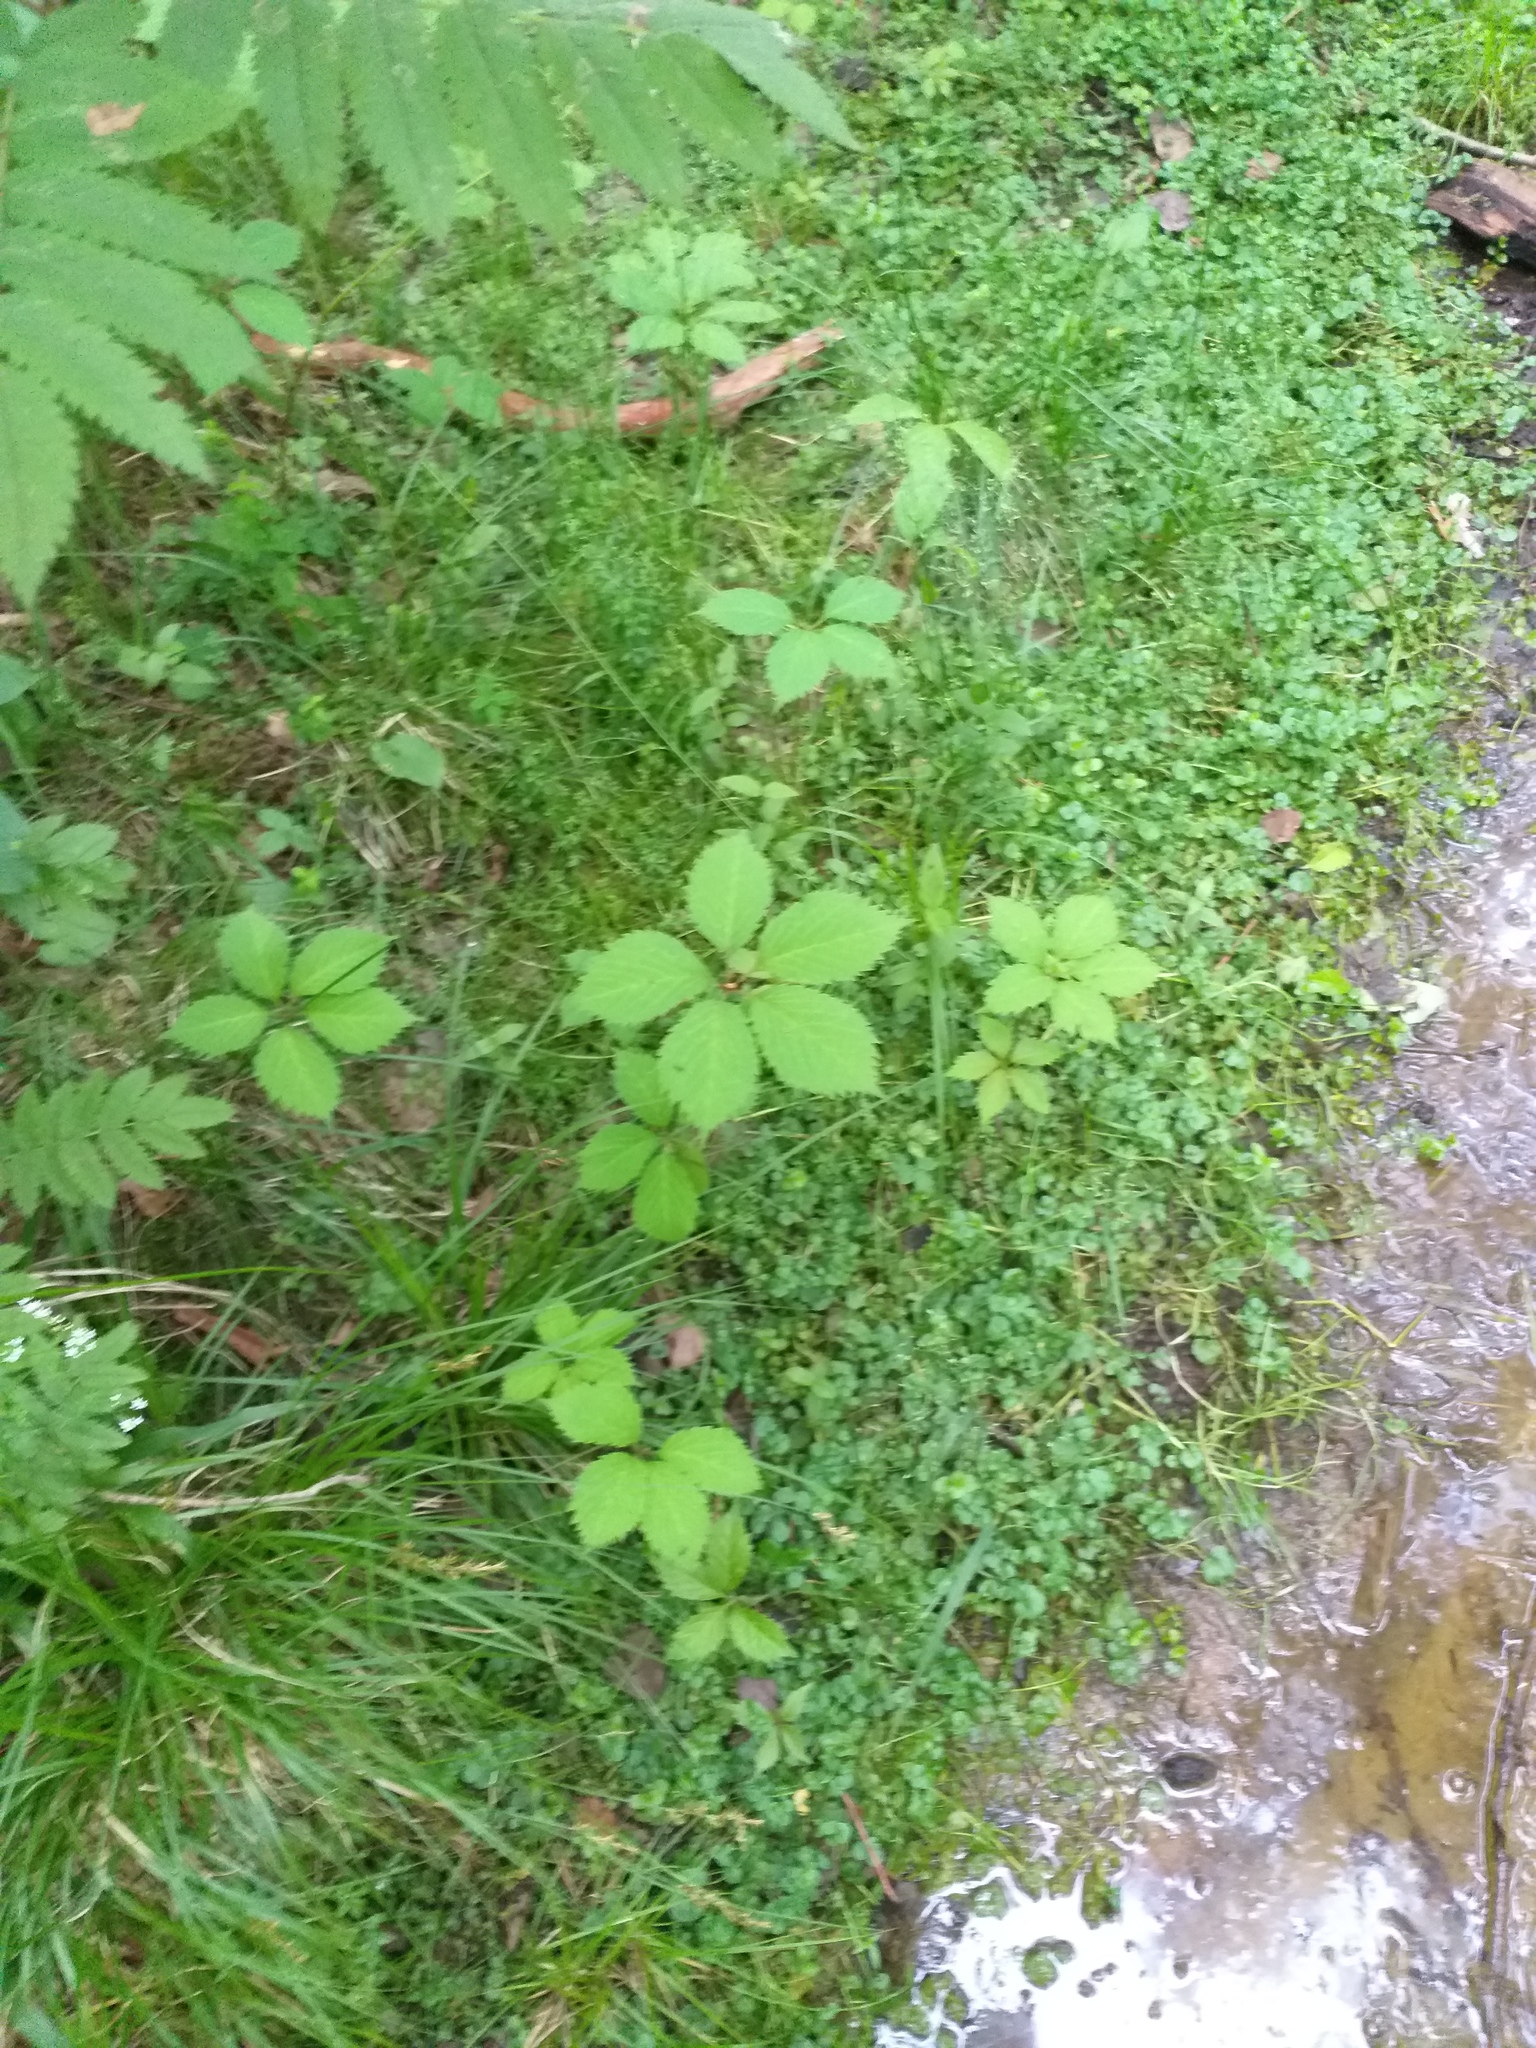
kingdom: Plantae
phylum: Tracheophyta
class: Magnoliopsida
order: Vitales
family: Vitaceae
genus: Parthenocissus
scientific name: Parthenocissus inserta
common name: False virginia-creeper
